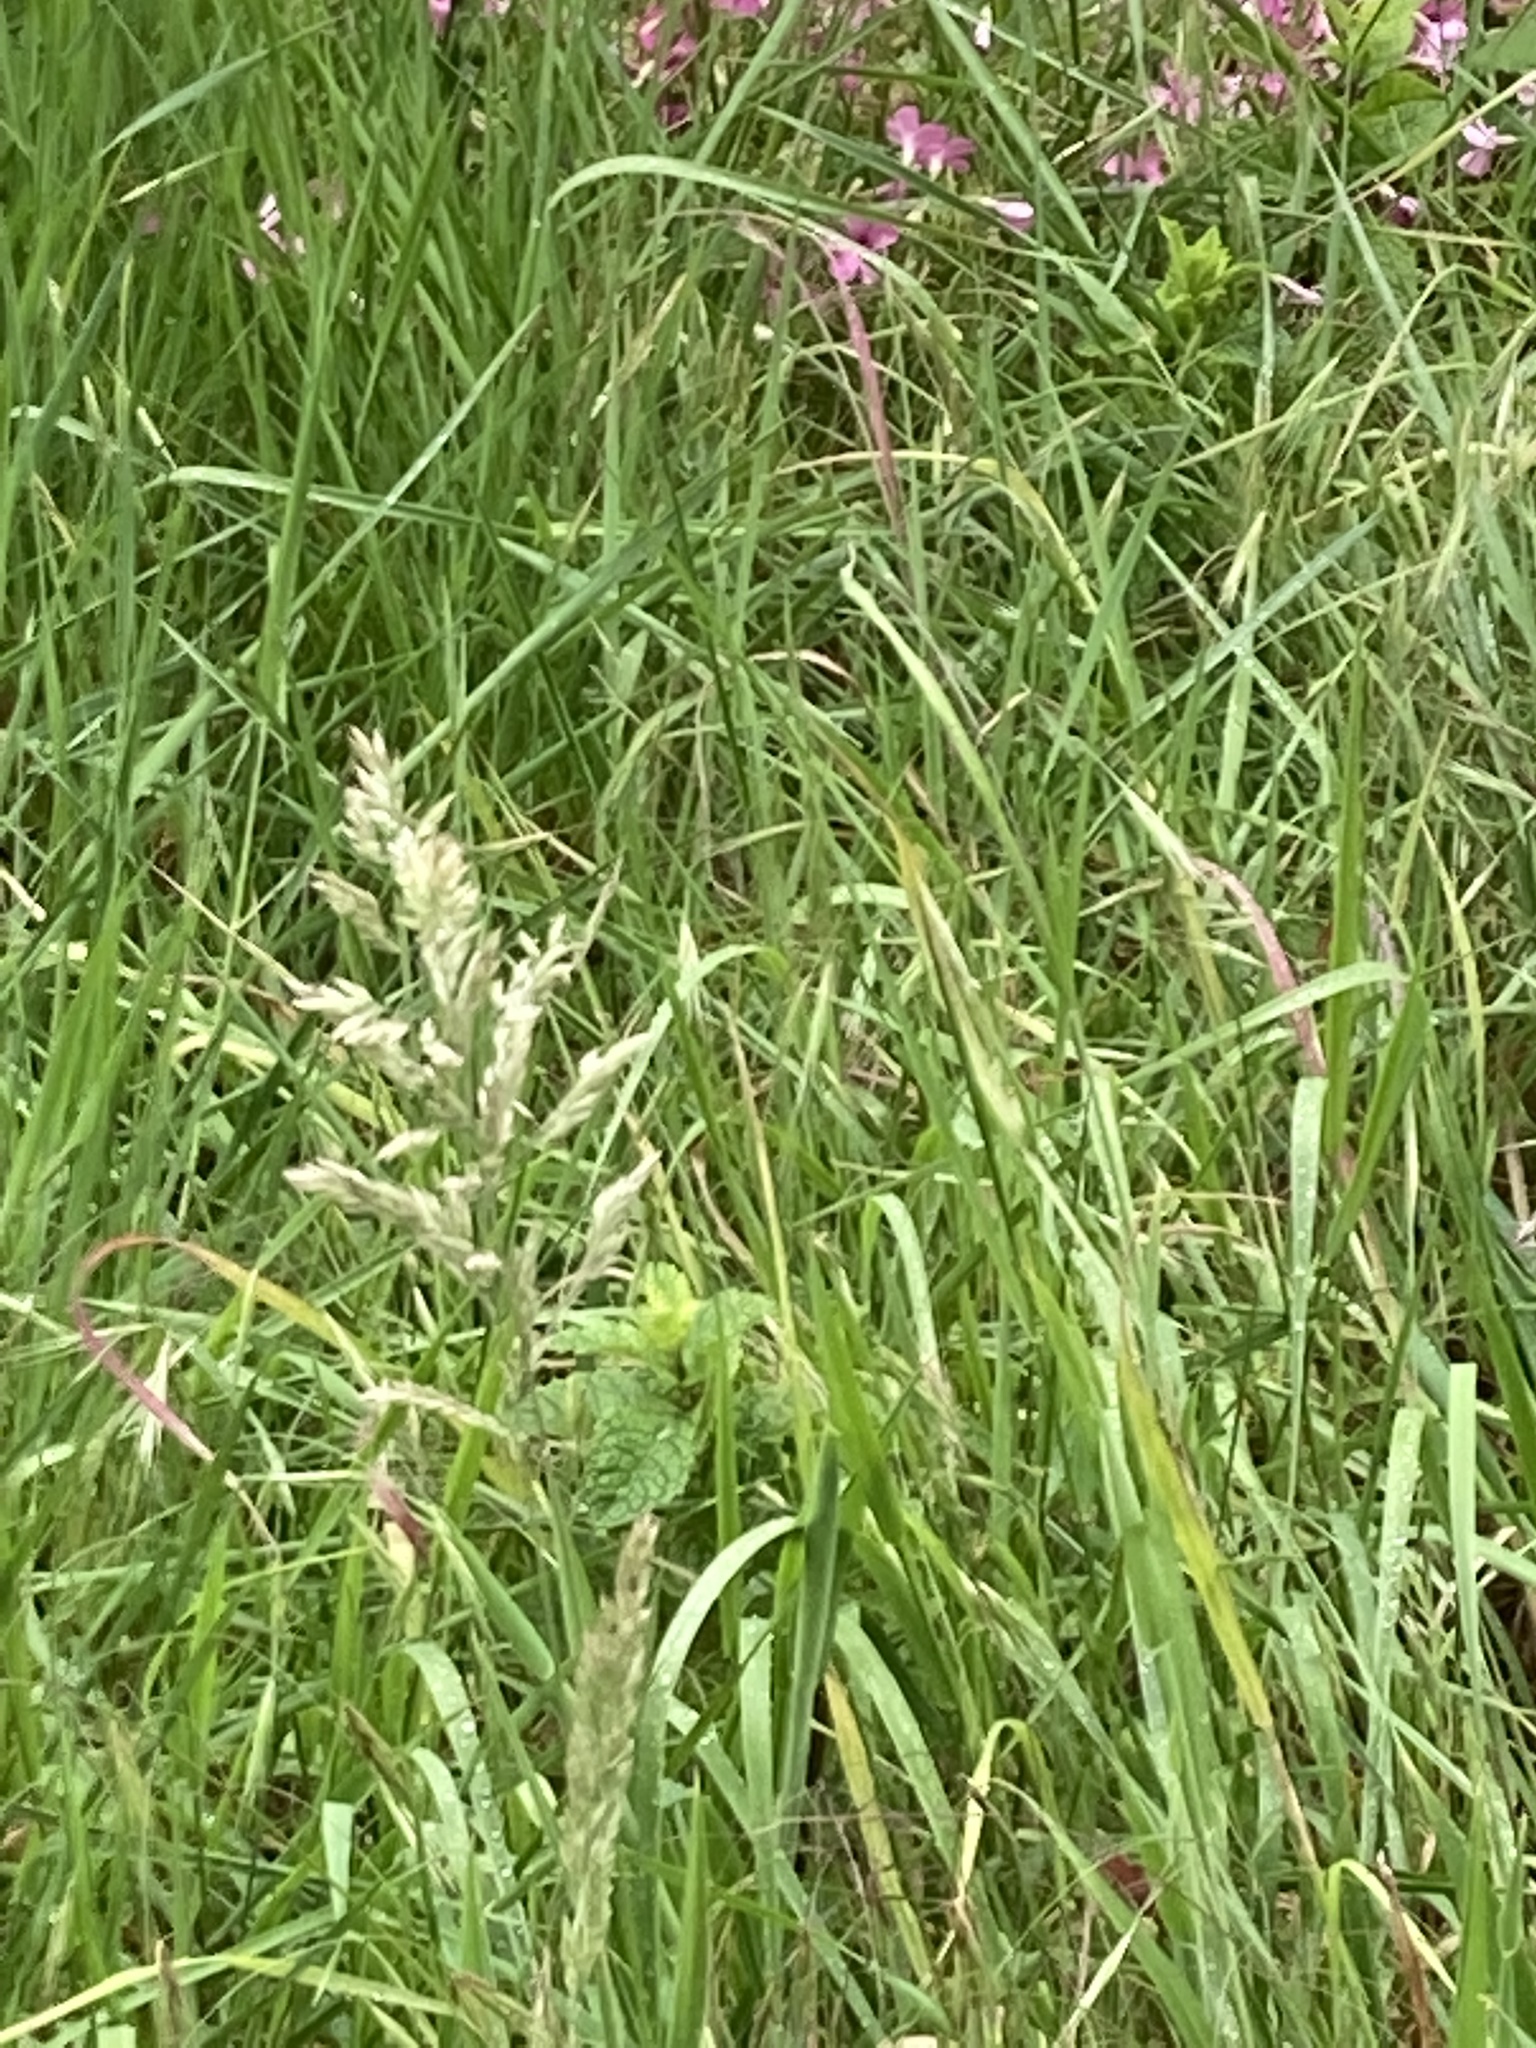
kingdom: Plantae
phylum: Tracheophyta
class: Liliopsida
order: Poales
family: Poaceae
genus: Holcus
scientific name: Holcus lanatus
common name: Yorkshire-fog
